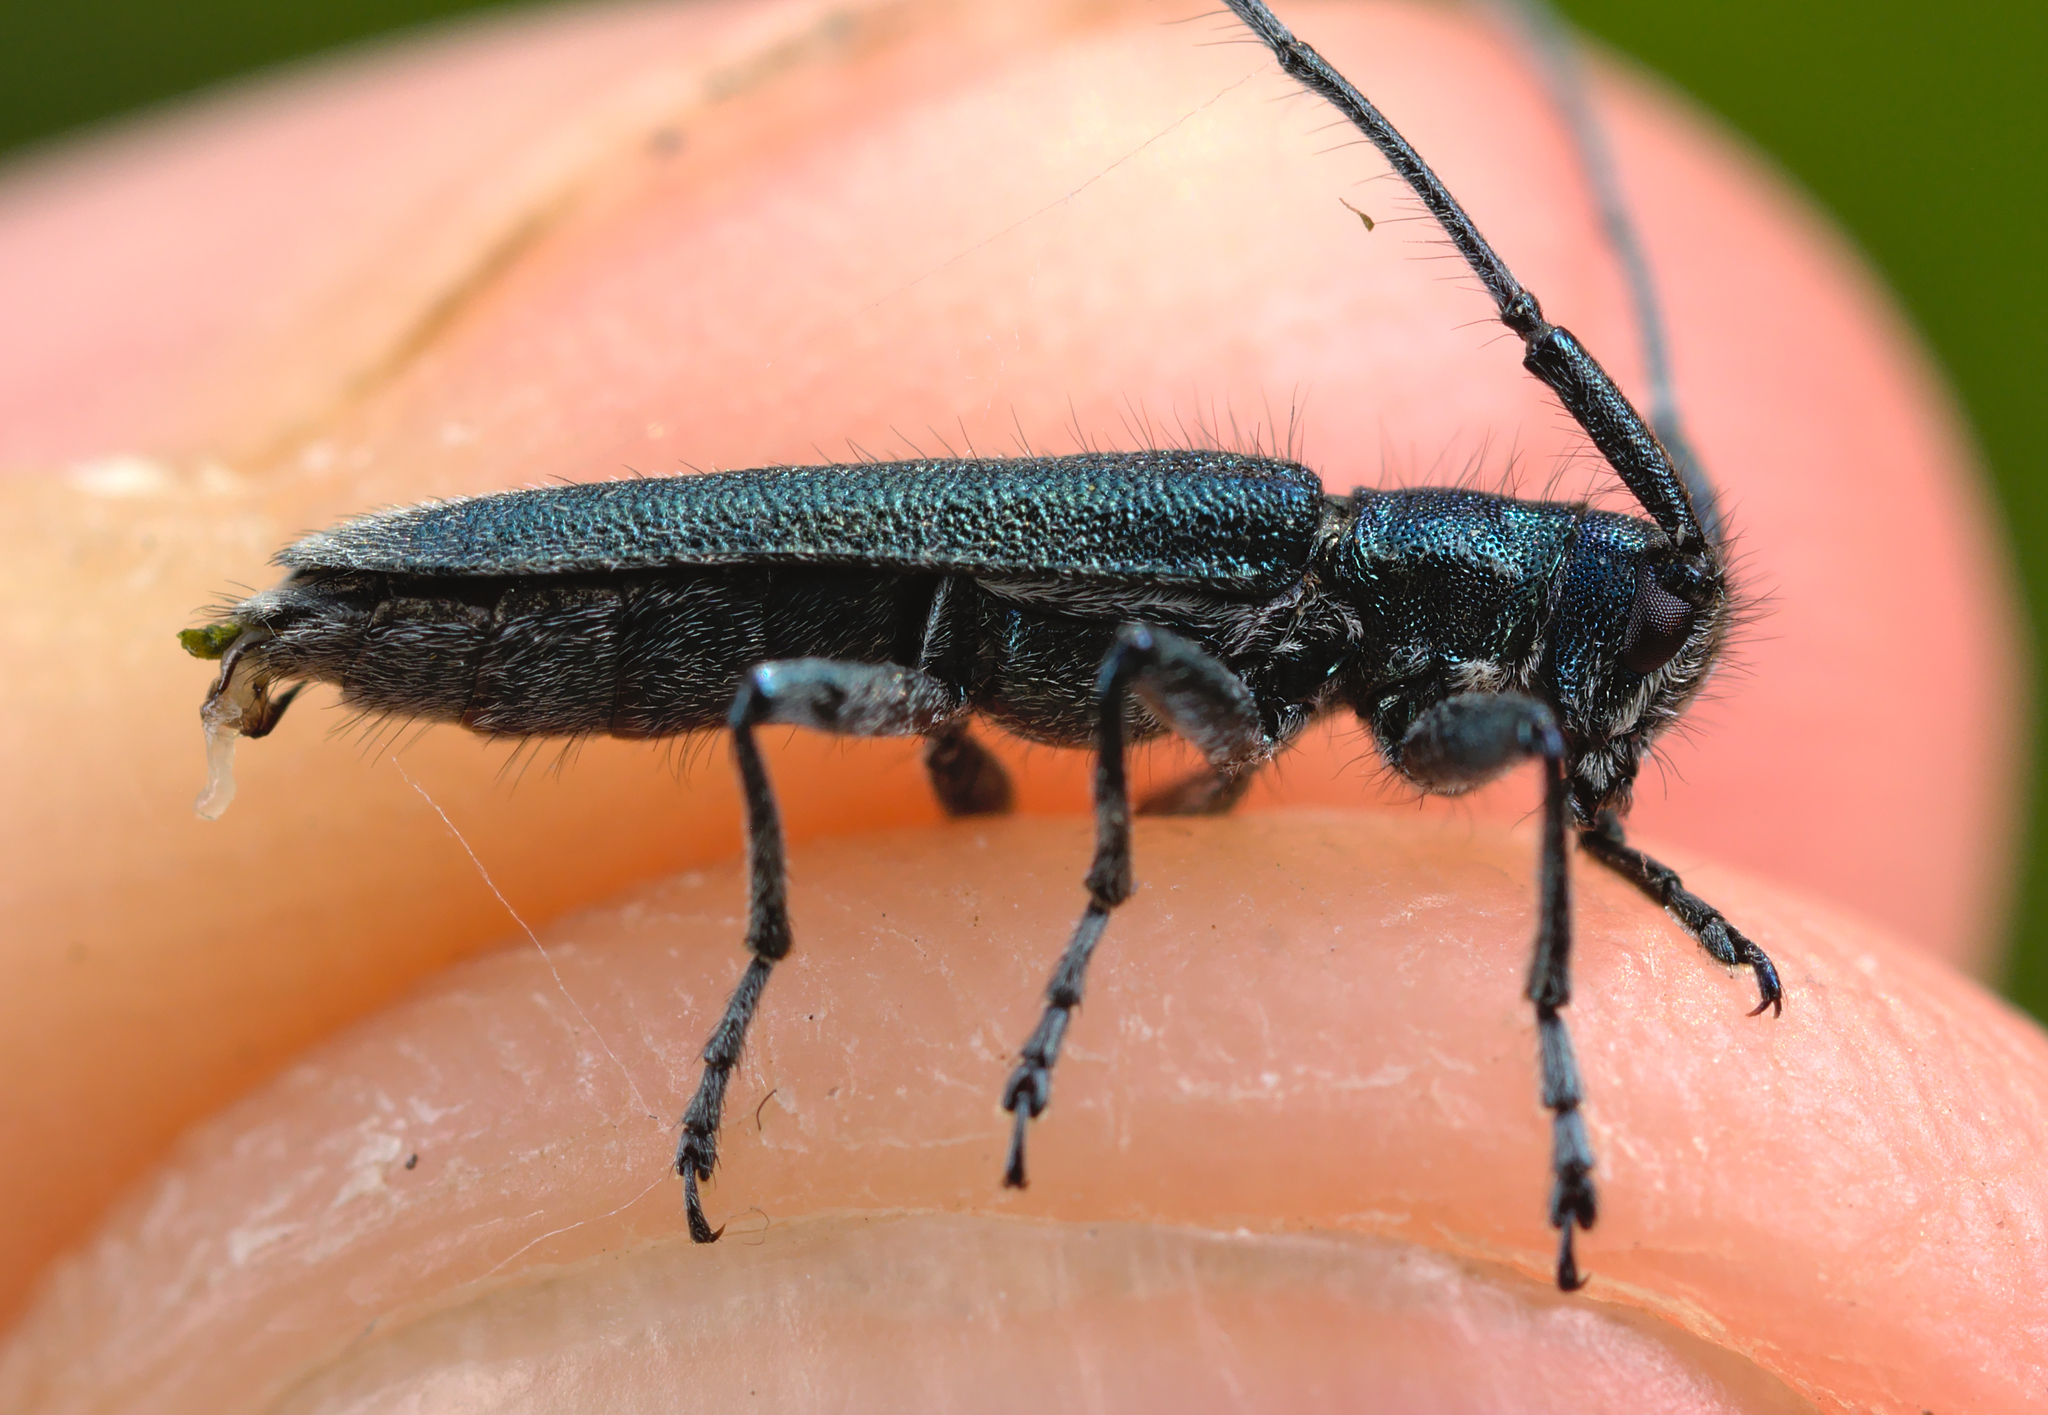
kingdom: Animalia
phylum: Arthropoda
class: Insecta
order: Coleoptera
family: Cerambycidae
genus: Agapanthia
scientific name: Agapanthia intermedia
